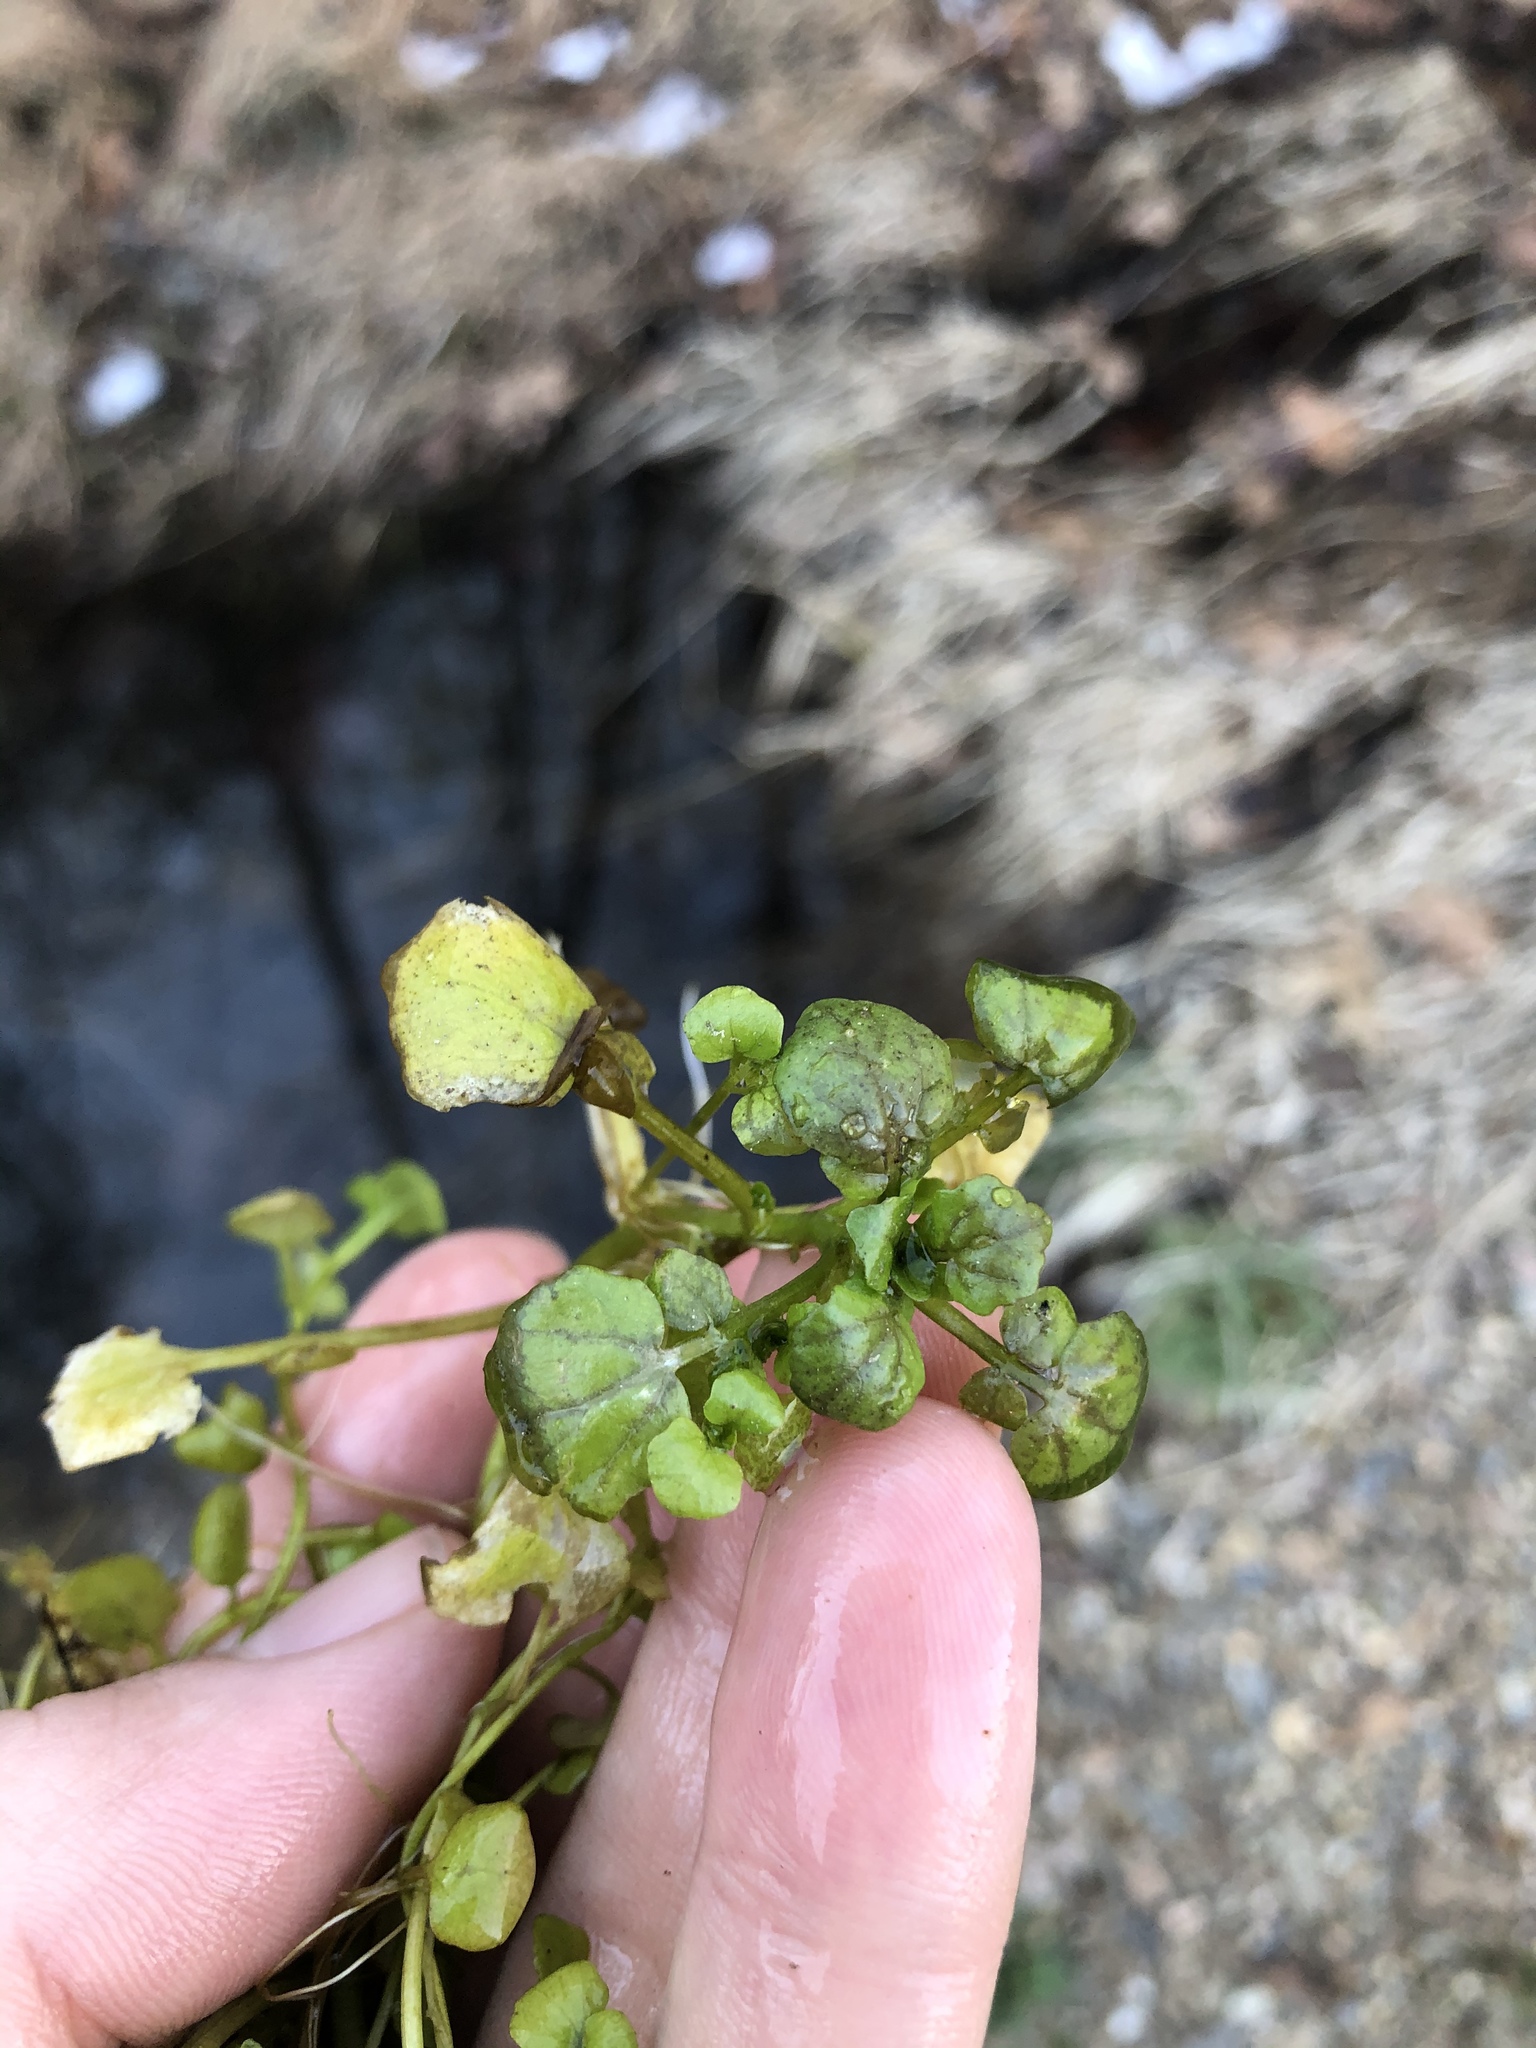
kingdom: Plantae
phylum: Tracheophyta
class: Magnoliopsida
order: Brassicales
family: Brassicaceae
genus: Nasturtium
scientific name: Nasturtium officinale
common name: Watercress
